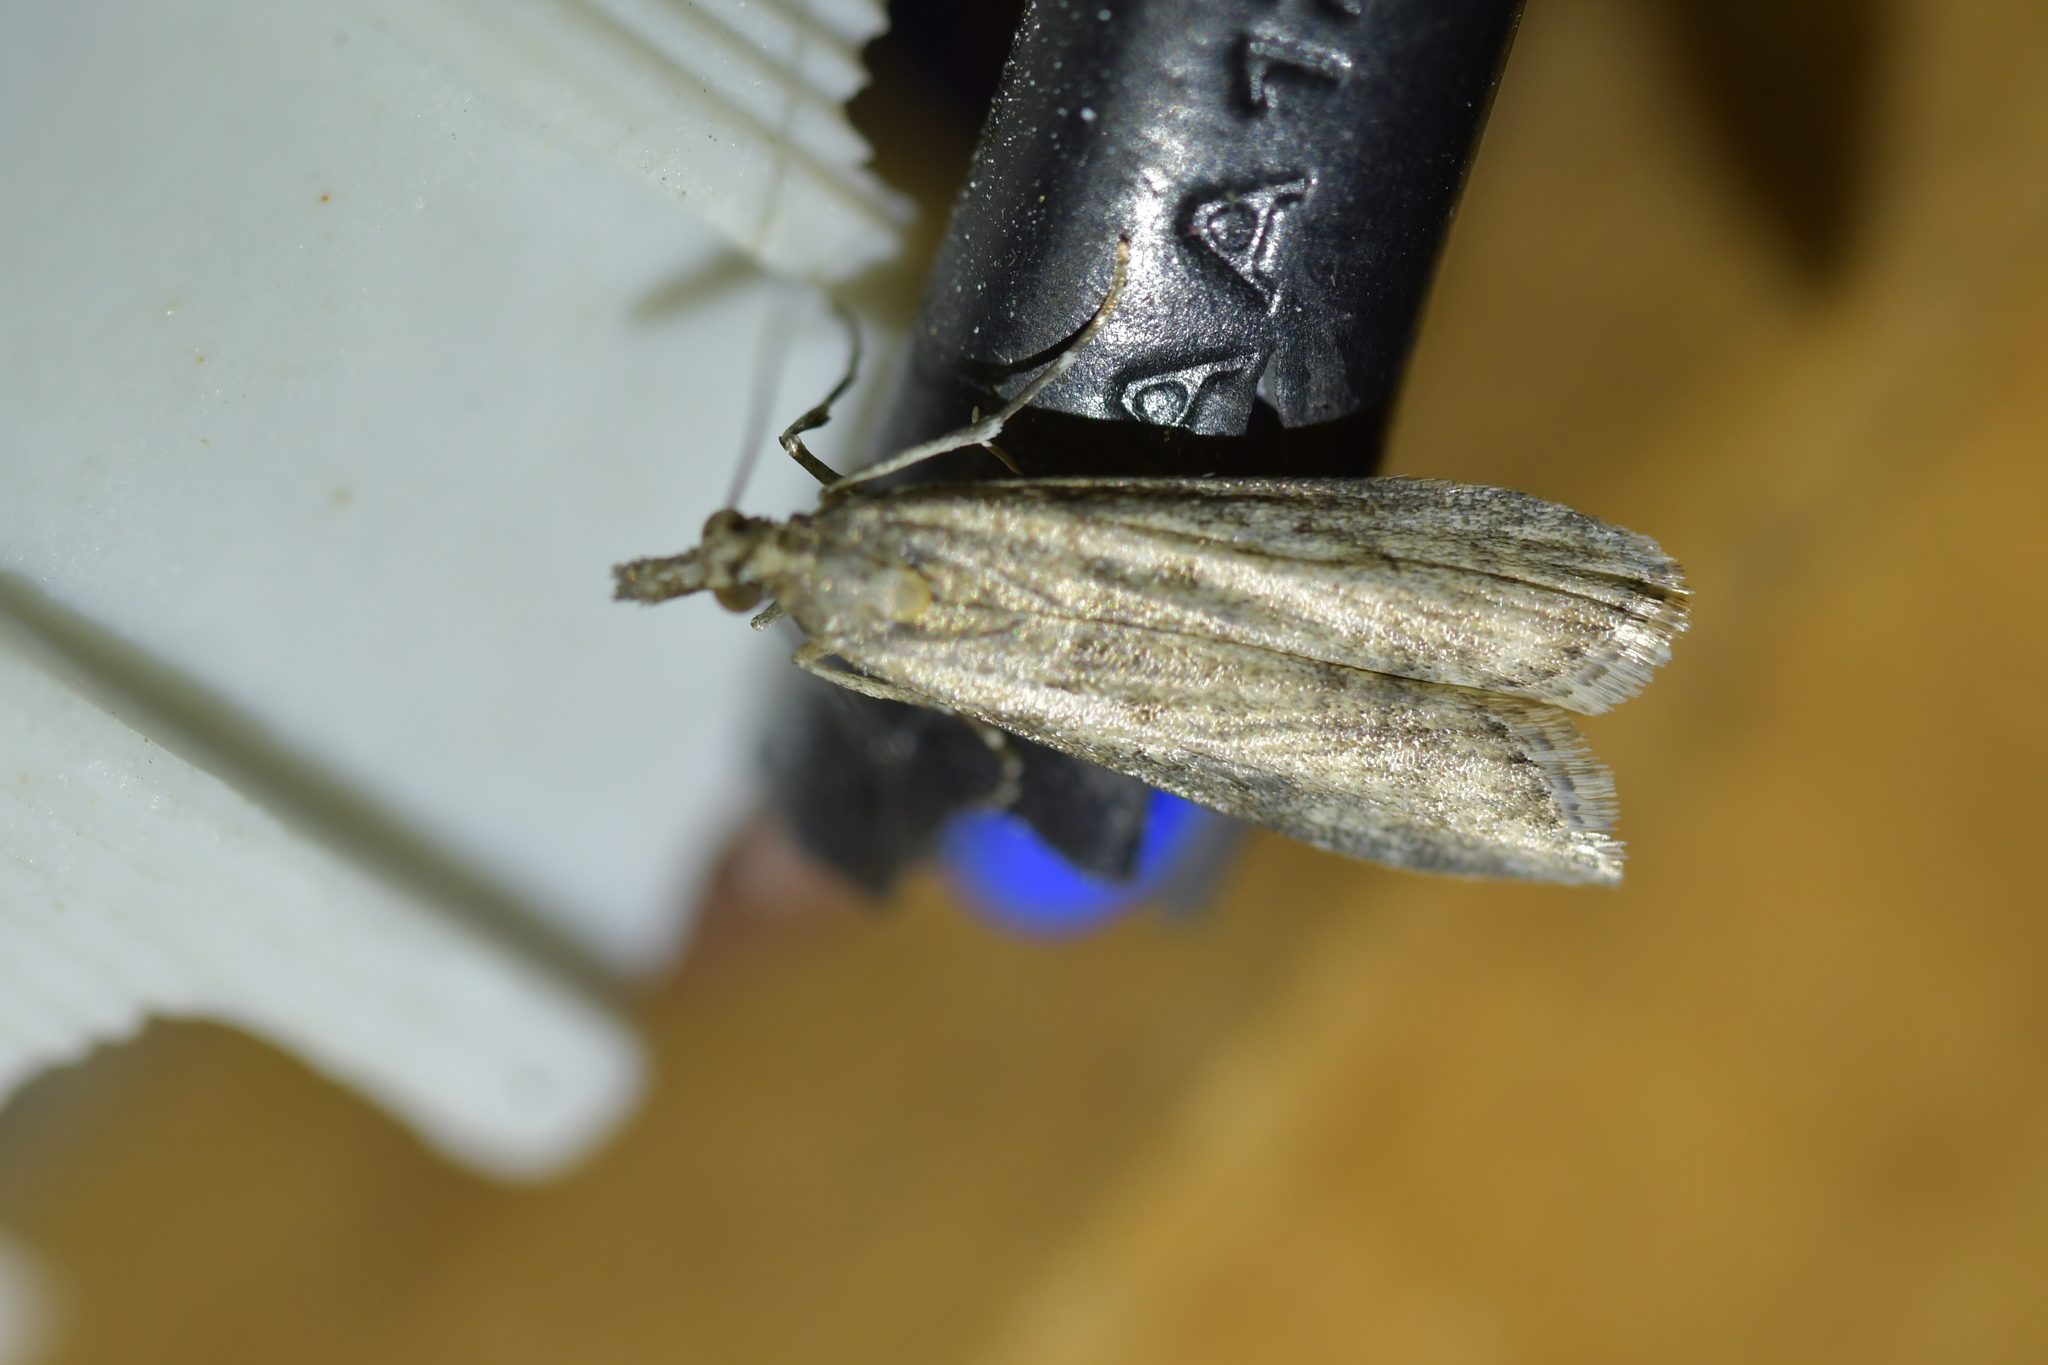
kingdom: Animalia
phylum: Arthropoda
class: Insecta
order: Lepidoptera
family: Crambidae
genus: Eudonia
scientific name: Eudonia leptalea
